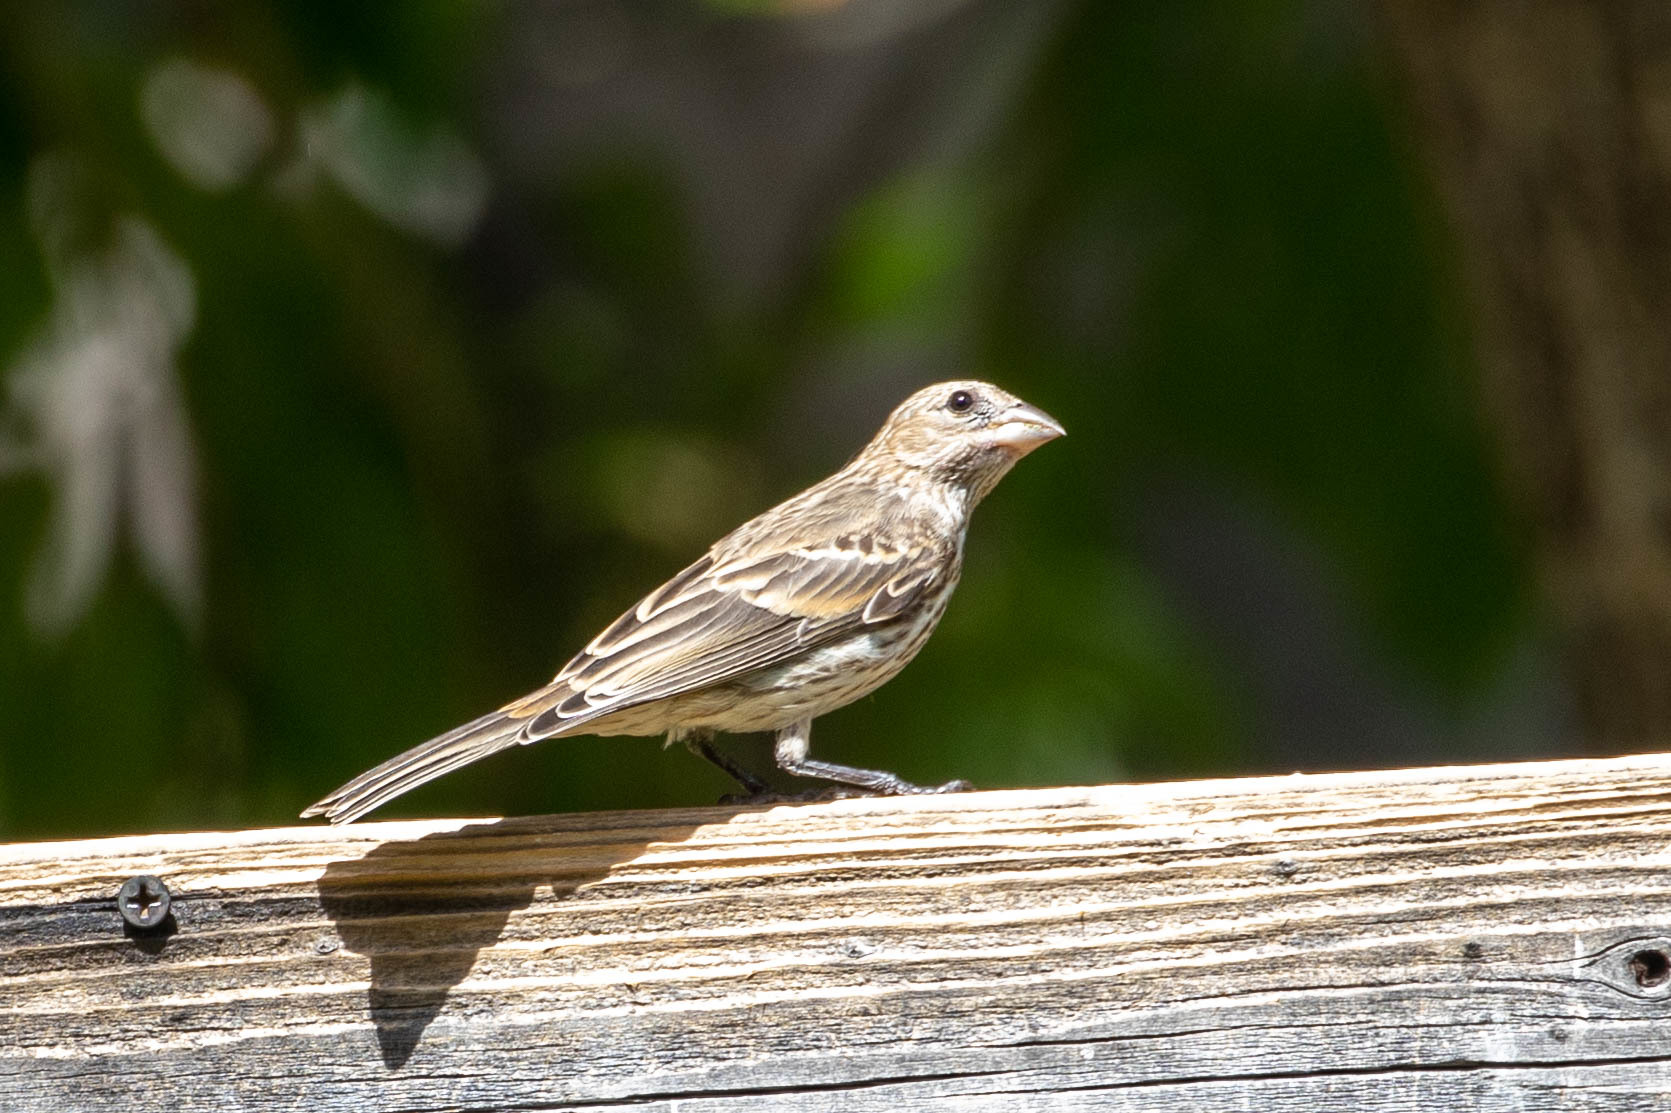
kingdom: Animalia
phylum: Chordata
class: Aves
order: Passeriformes
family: Fringillidae
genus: Haemorhous
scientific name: Haemorhous mexicanus
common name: House finch
